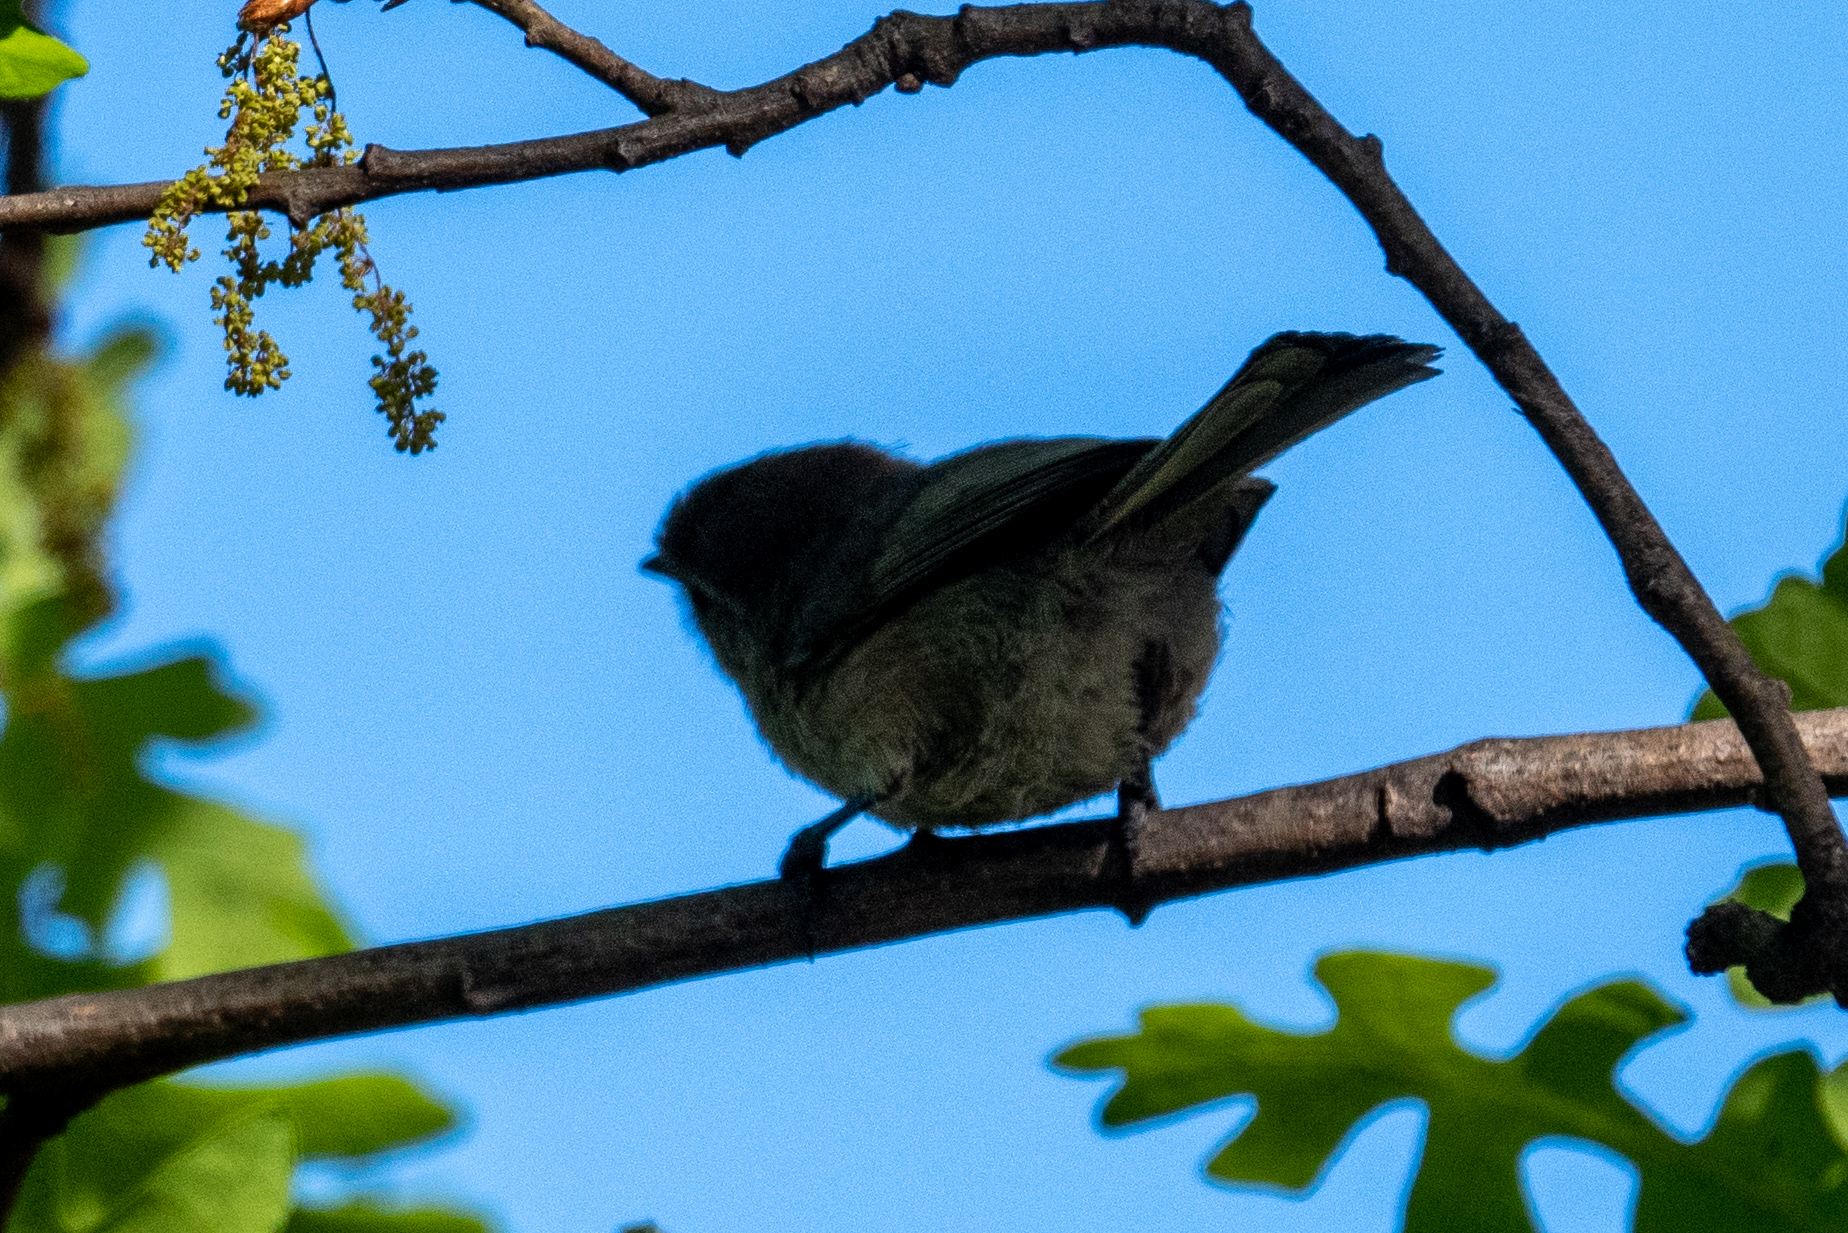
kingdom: Animalia
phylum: Chordata
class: Aves
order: Passeriformes
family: Aegithalidae
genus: Psaltriparus
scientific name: Psaltriparus minimus
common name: American bushtit
